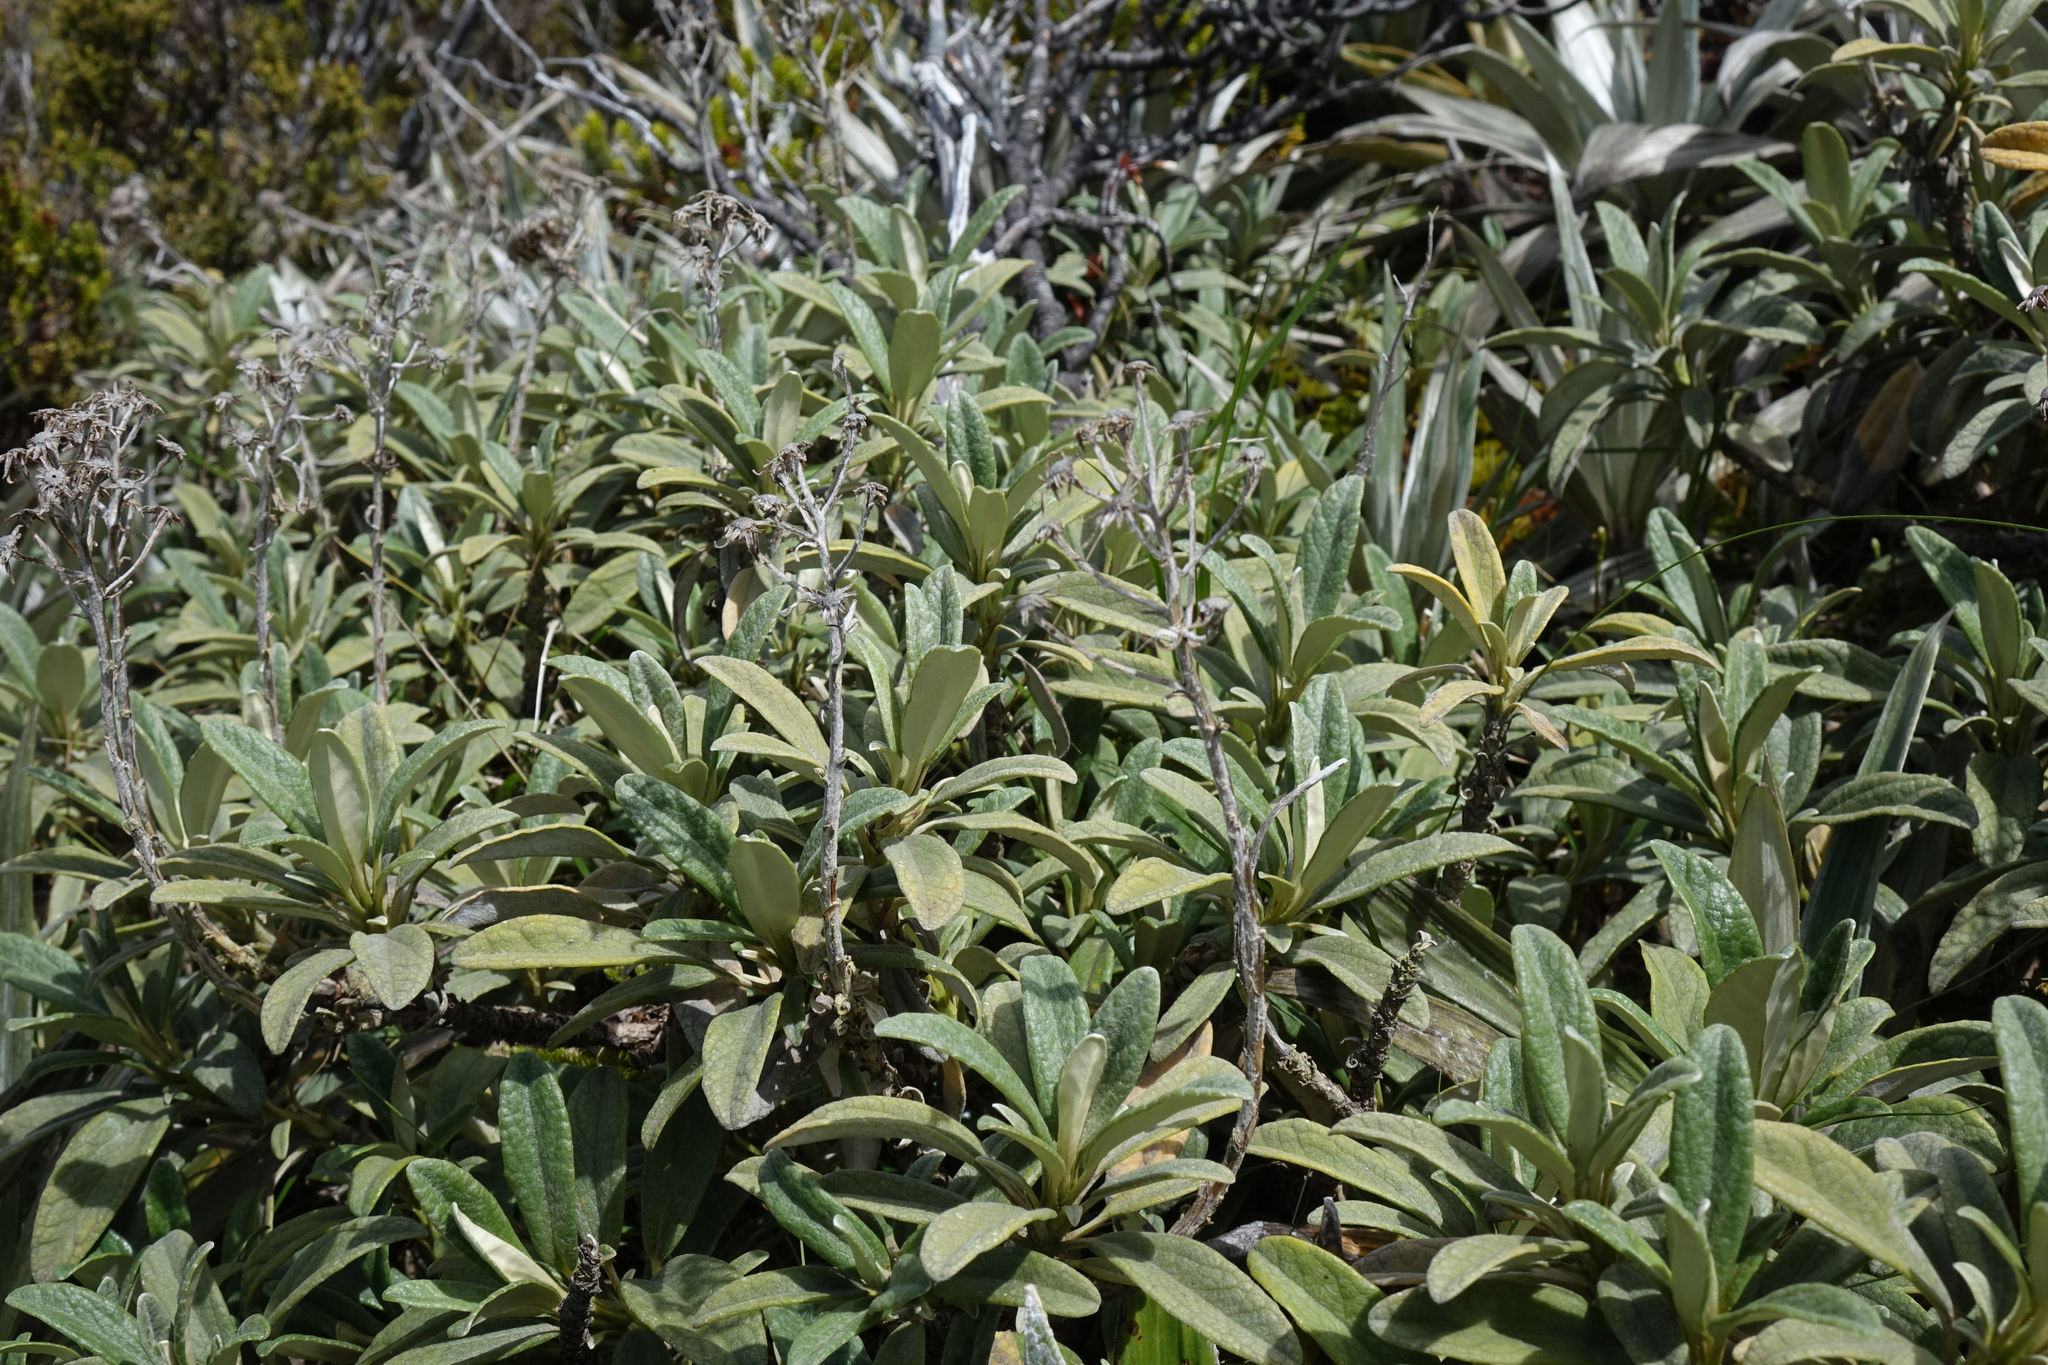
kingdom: Plantae
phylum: Tracheophyta
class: Magnoliopsida
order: Asterales
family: Asteraceae
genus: Brachyglottis
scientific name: Brachyglottis revoluta
